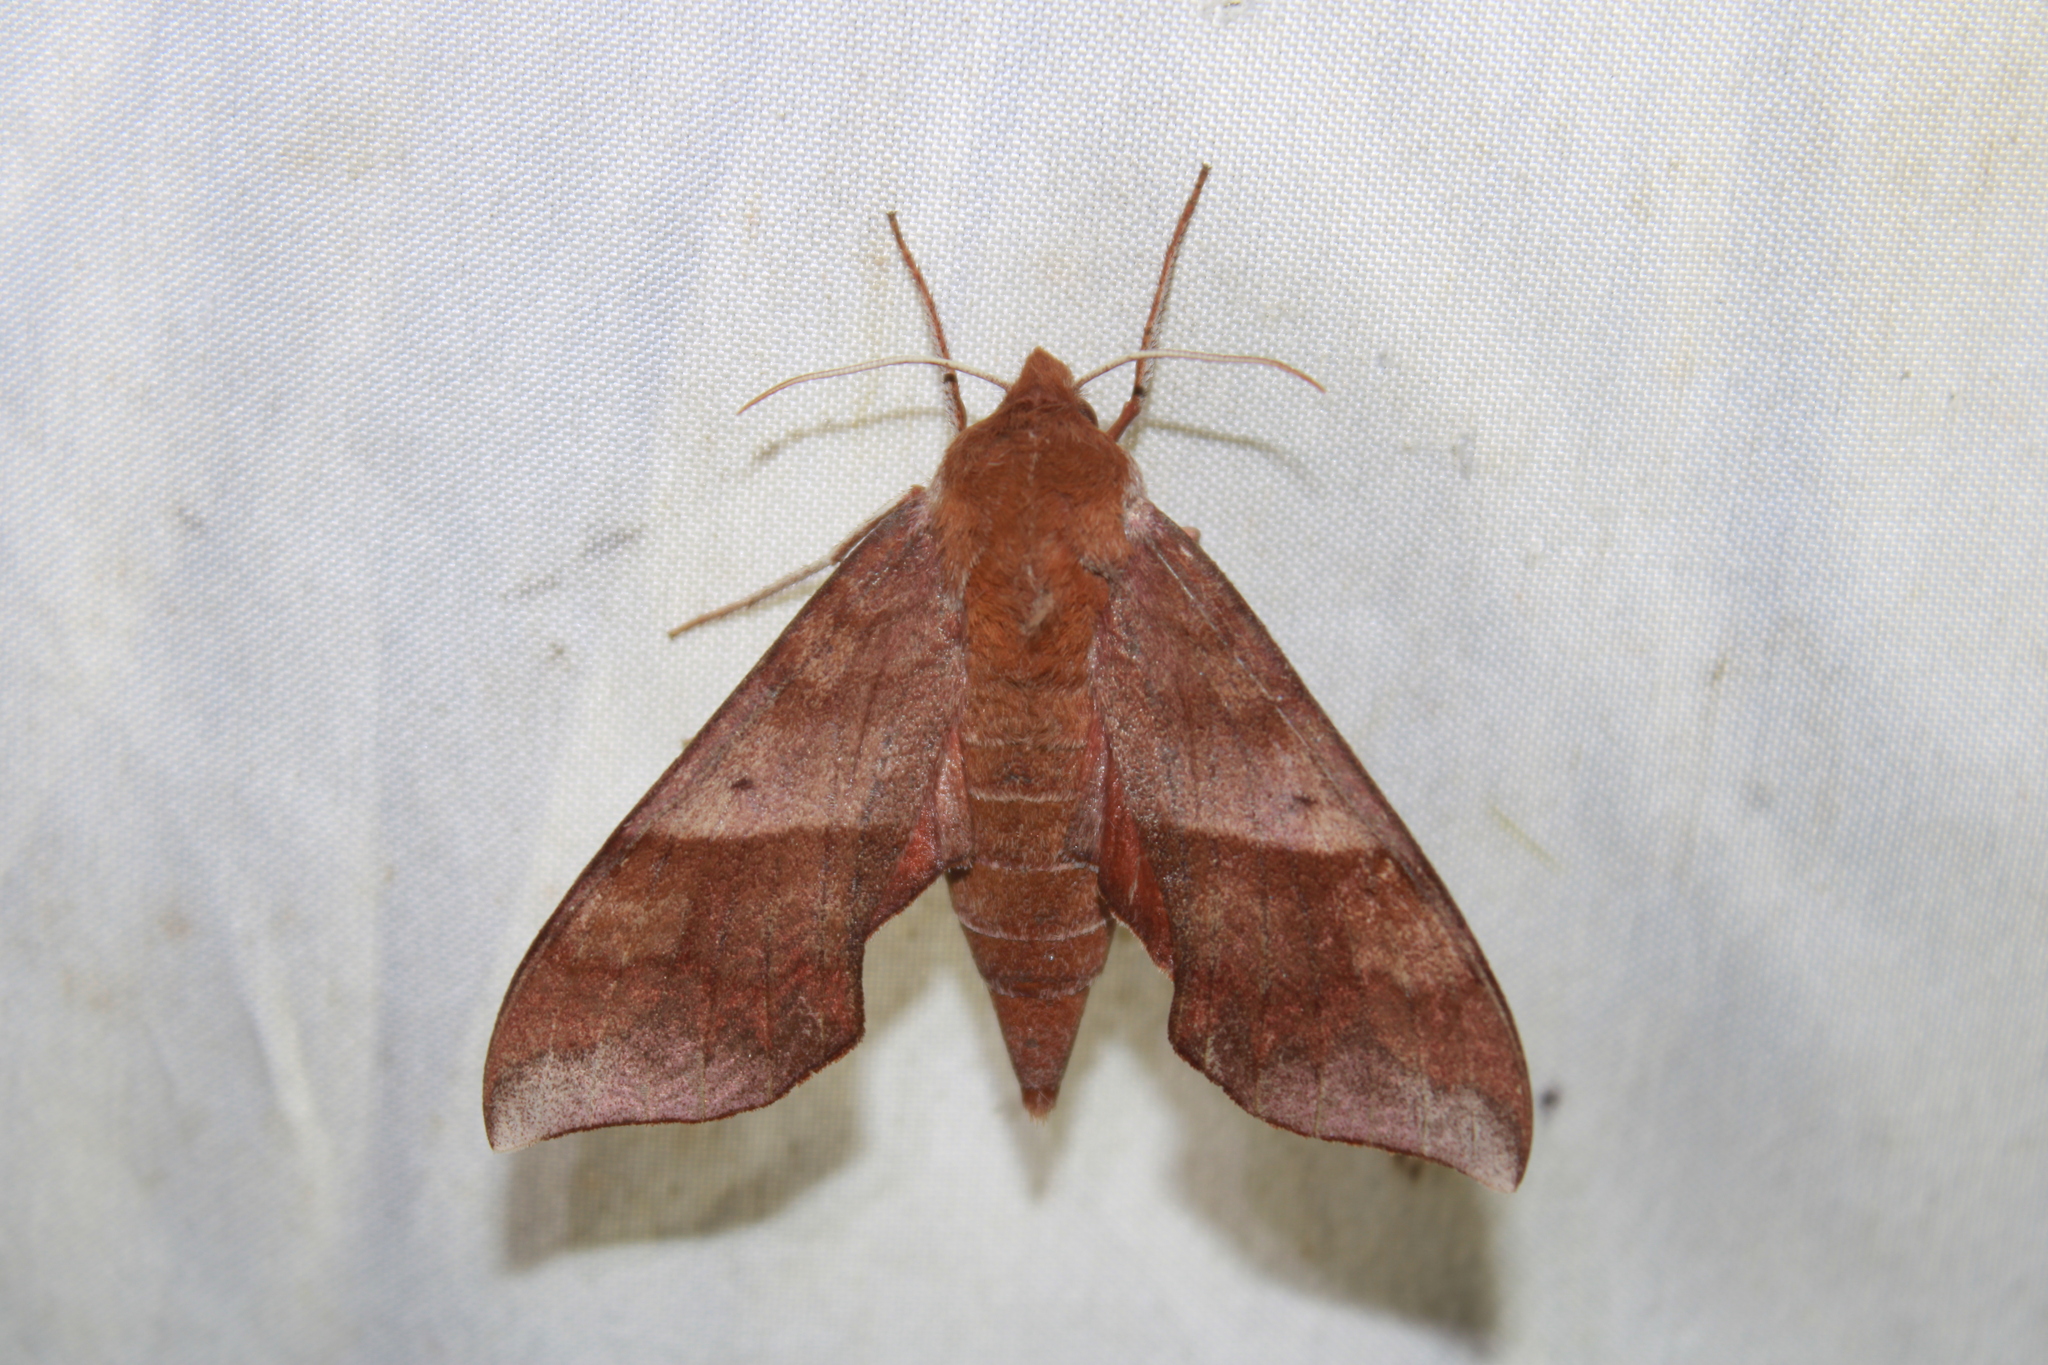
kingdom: Animalia
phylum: Arthropoda
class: Insecta
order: Lepidoptera
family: Sphingidae
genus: Darapsa
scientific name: Darapsa choerilus
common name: Azalea sphinx
